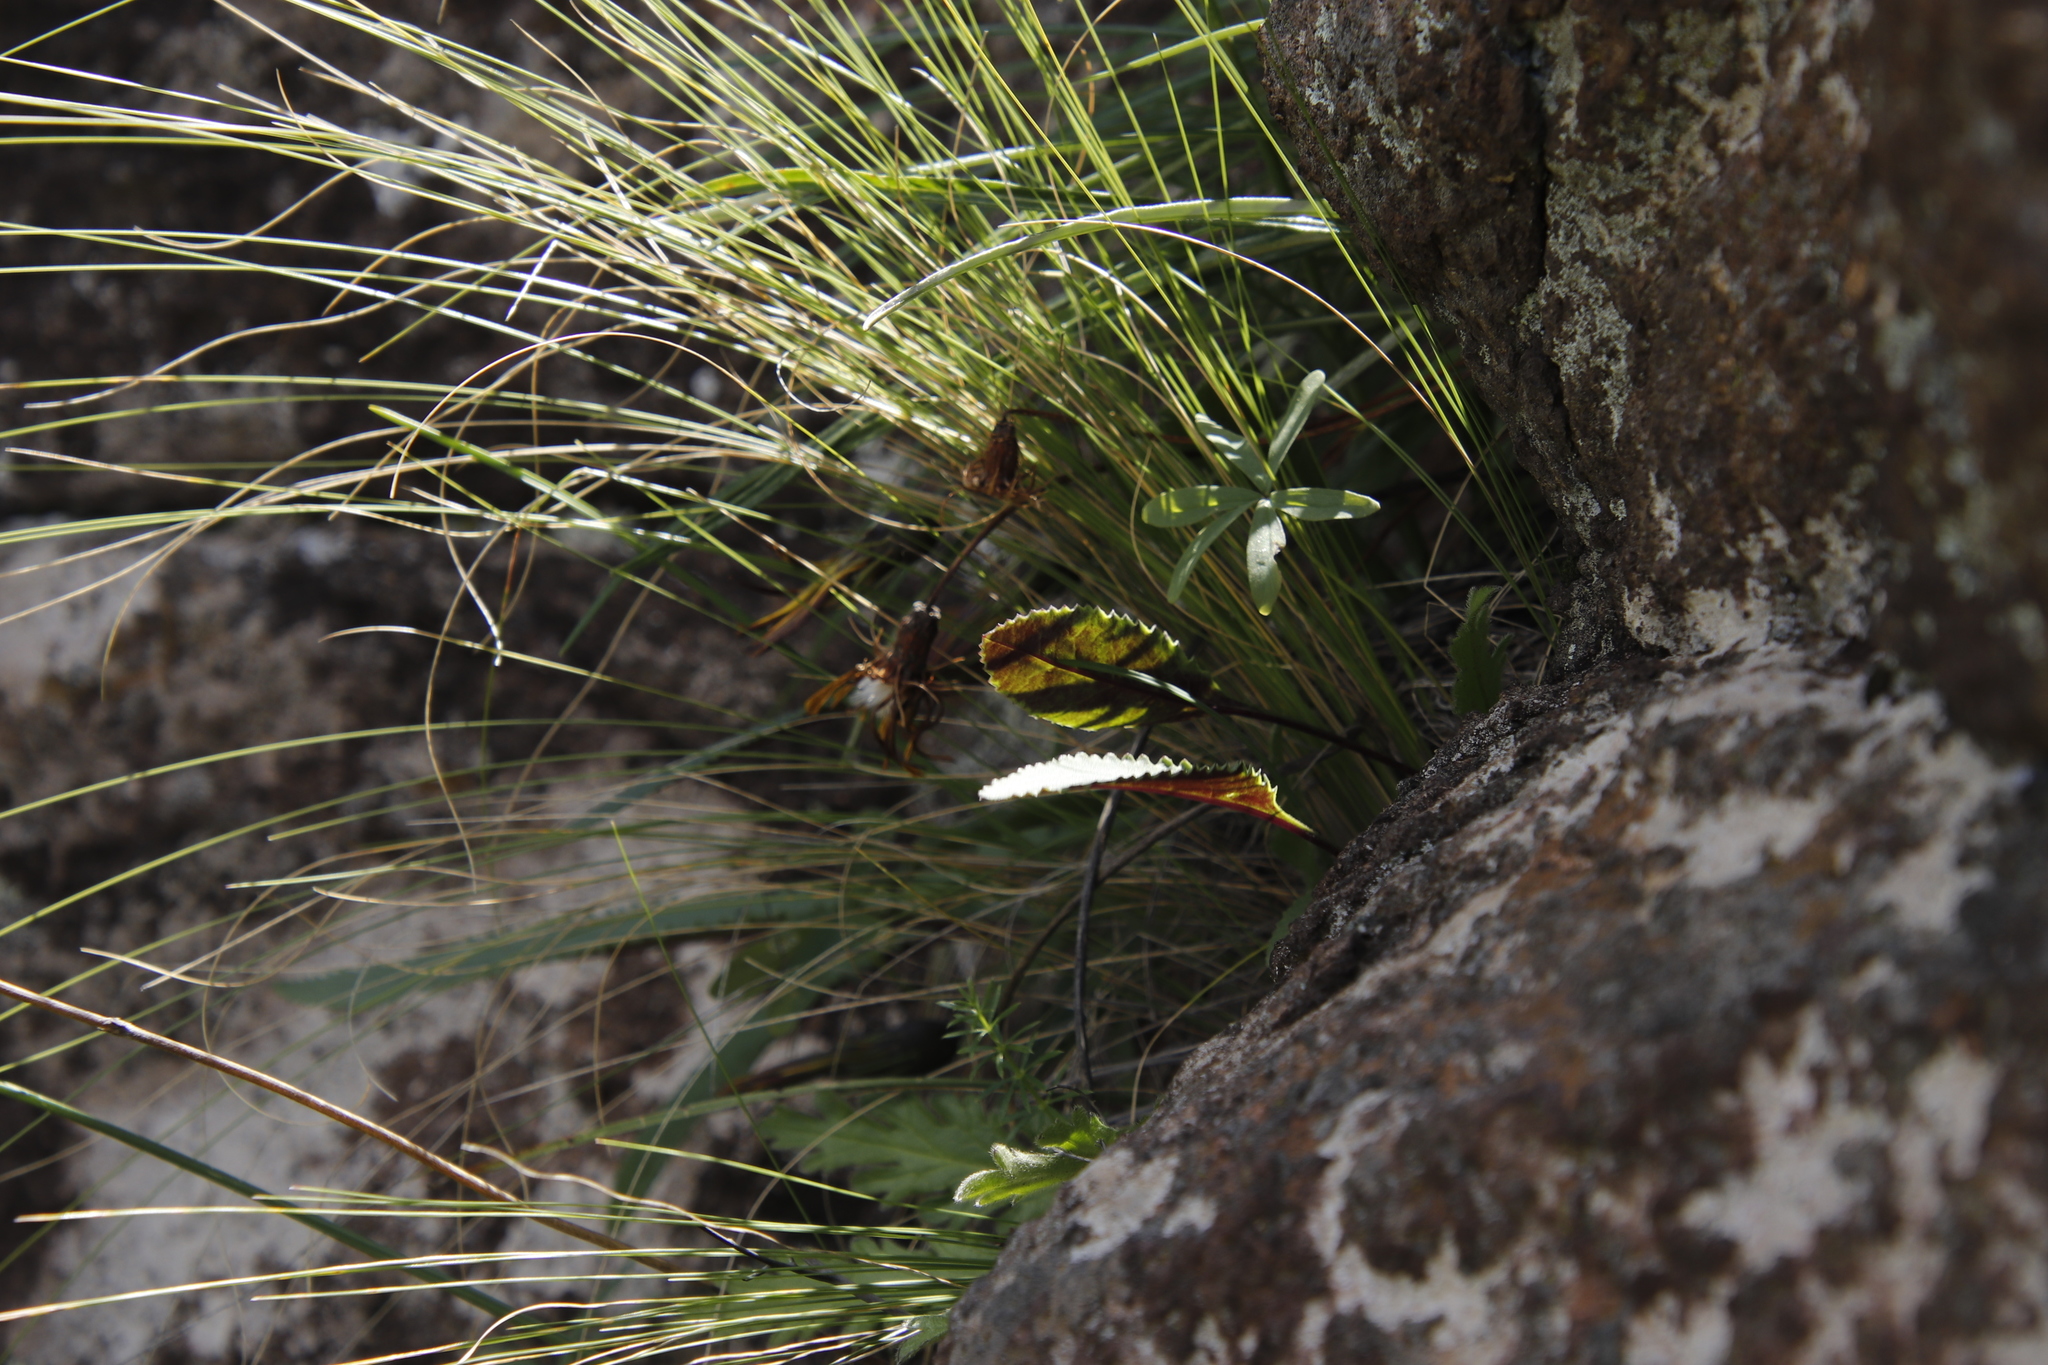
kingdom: Plantae
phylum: Tracheophyta
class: Magnoliopsida
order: Oxalidales
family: Oxalidaceae
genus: Oxalis
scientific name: Oxalis smithiana
